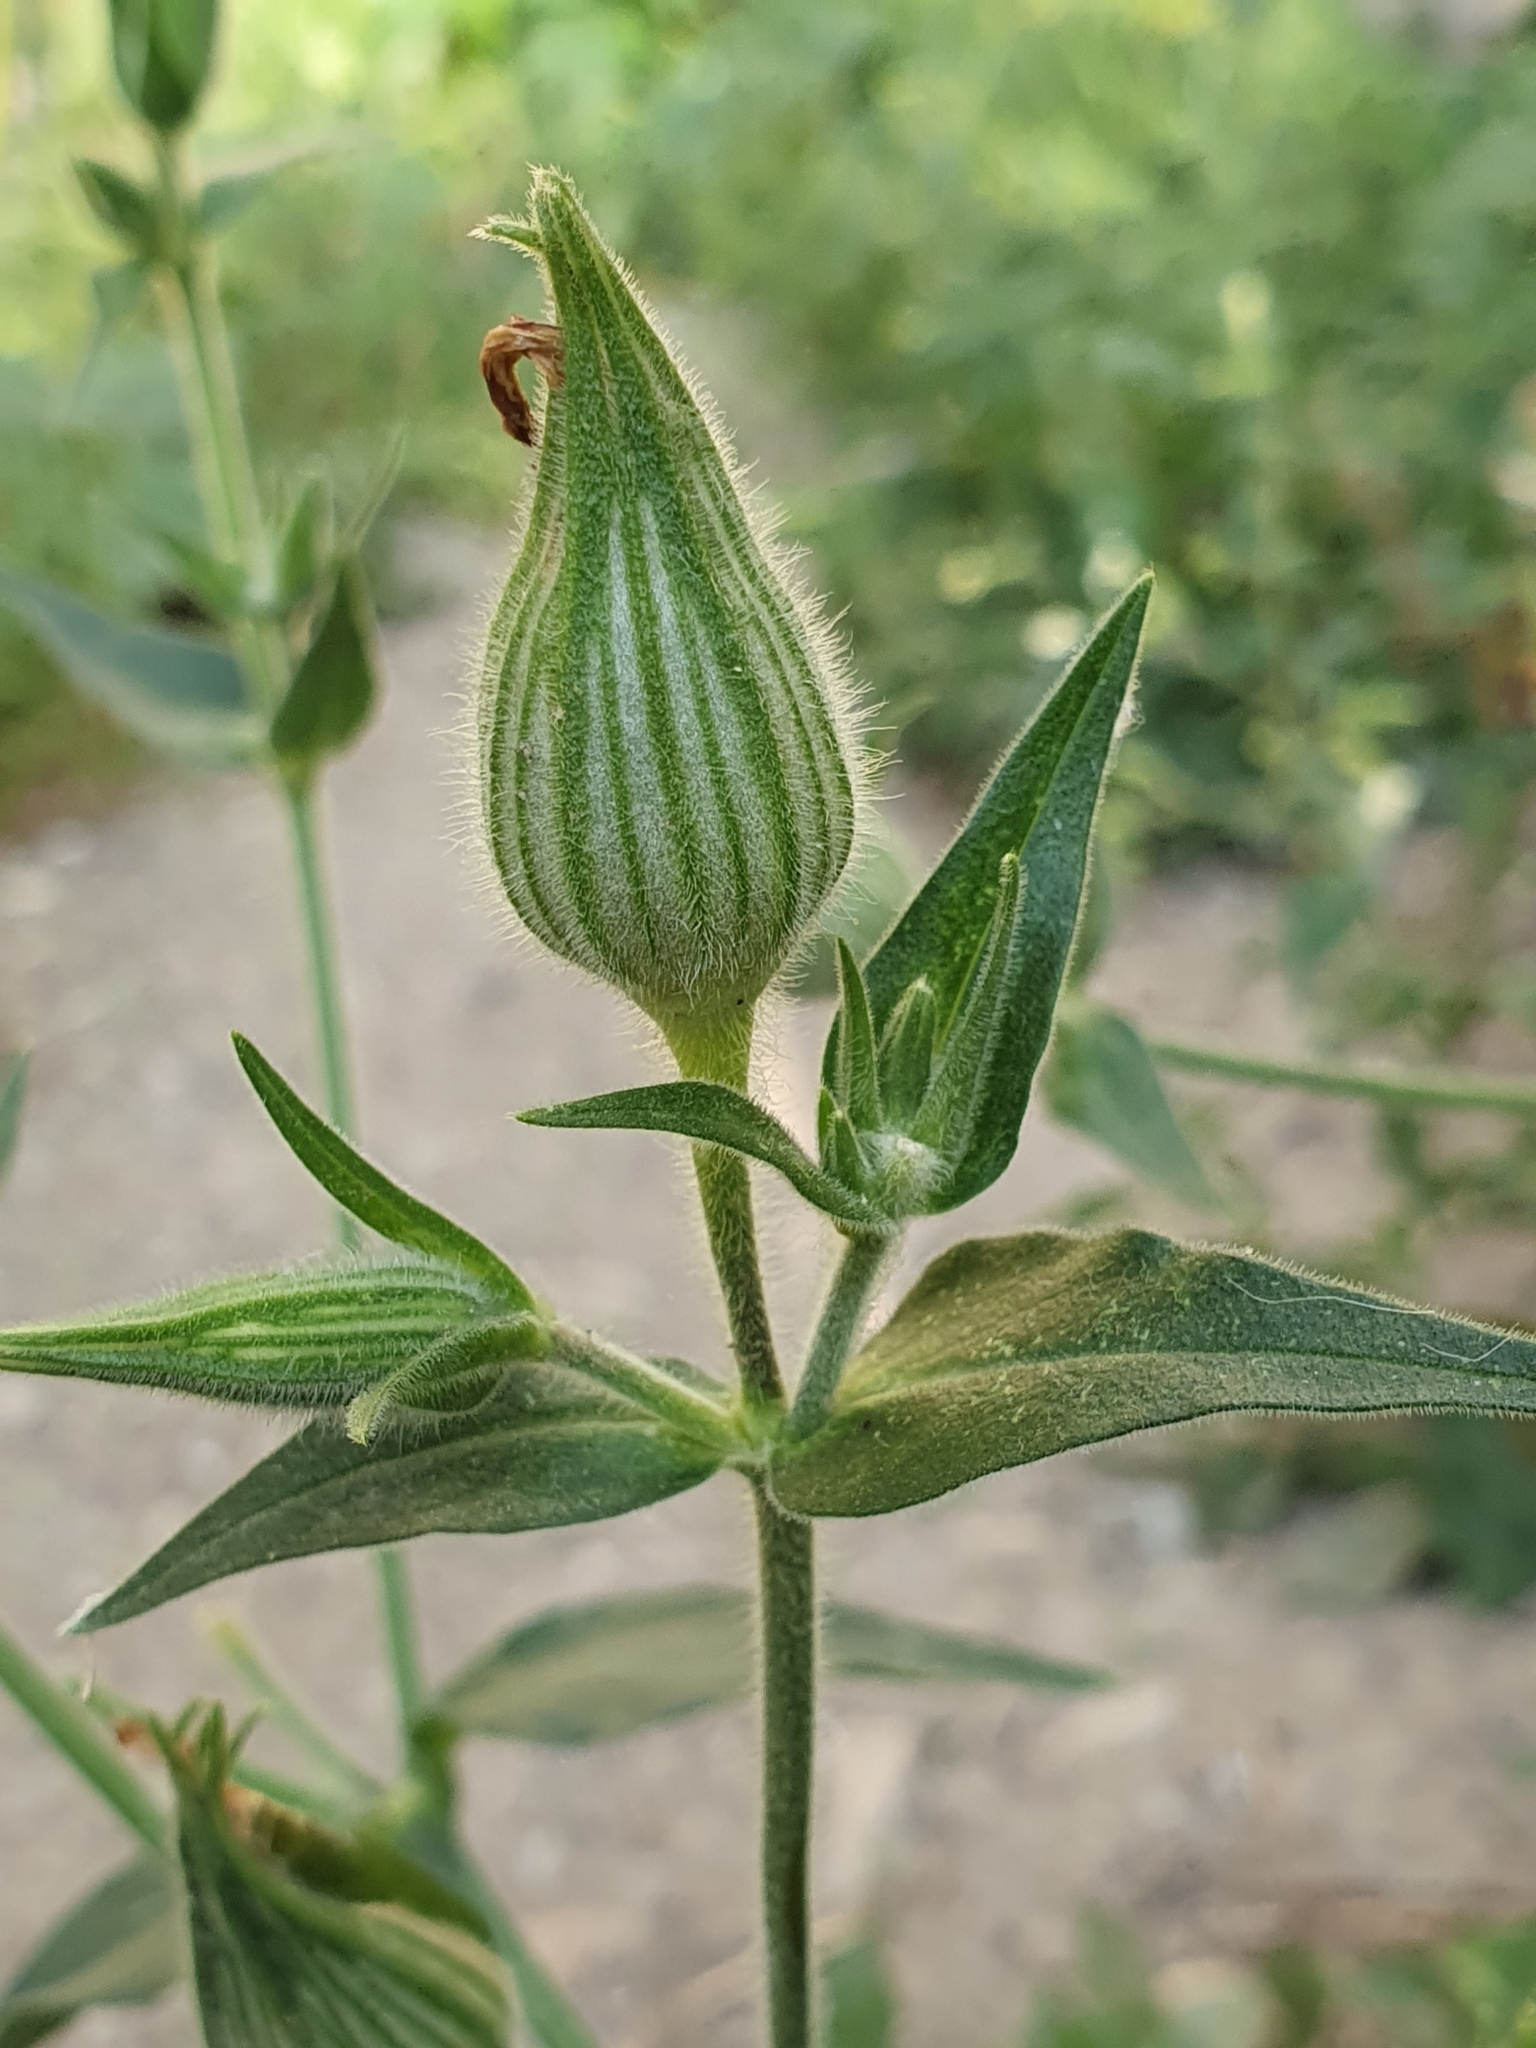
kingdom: Plantae
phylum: Tracheophyta
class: Magnoliopsida
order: Caryophyllales
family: Caryophyllaceae
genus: Silene
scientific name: Silene latifolia
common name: White campion
